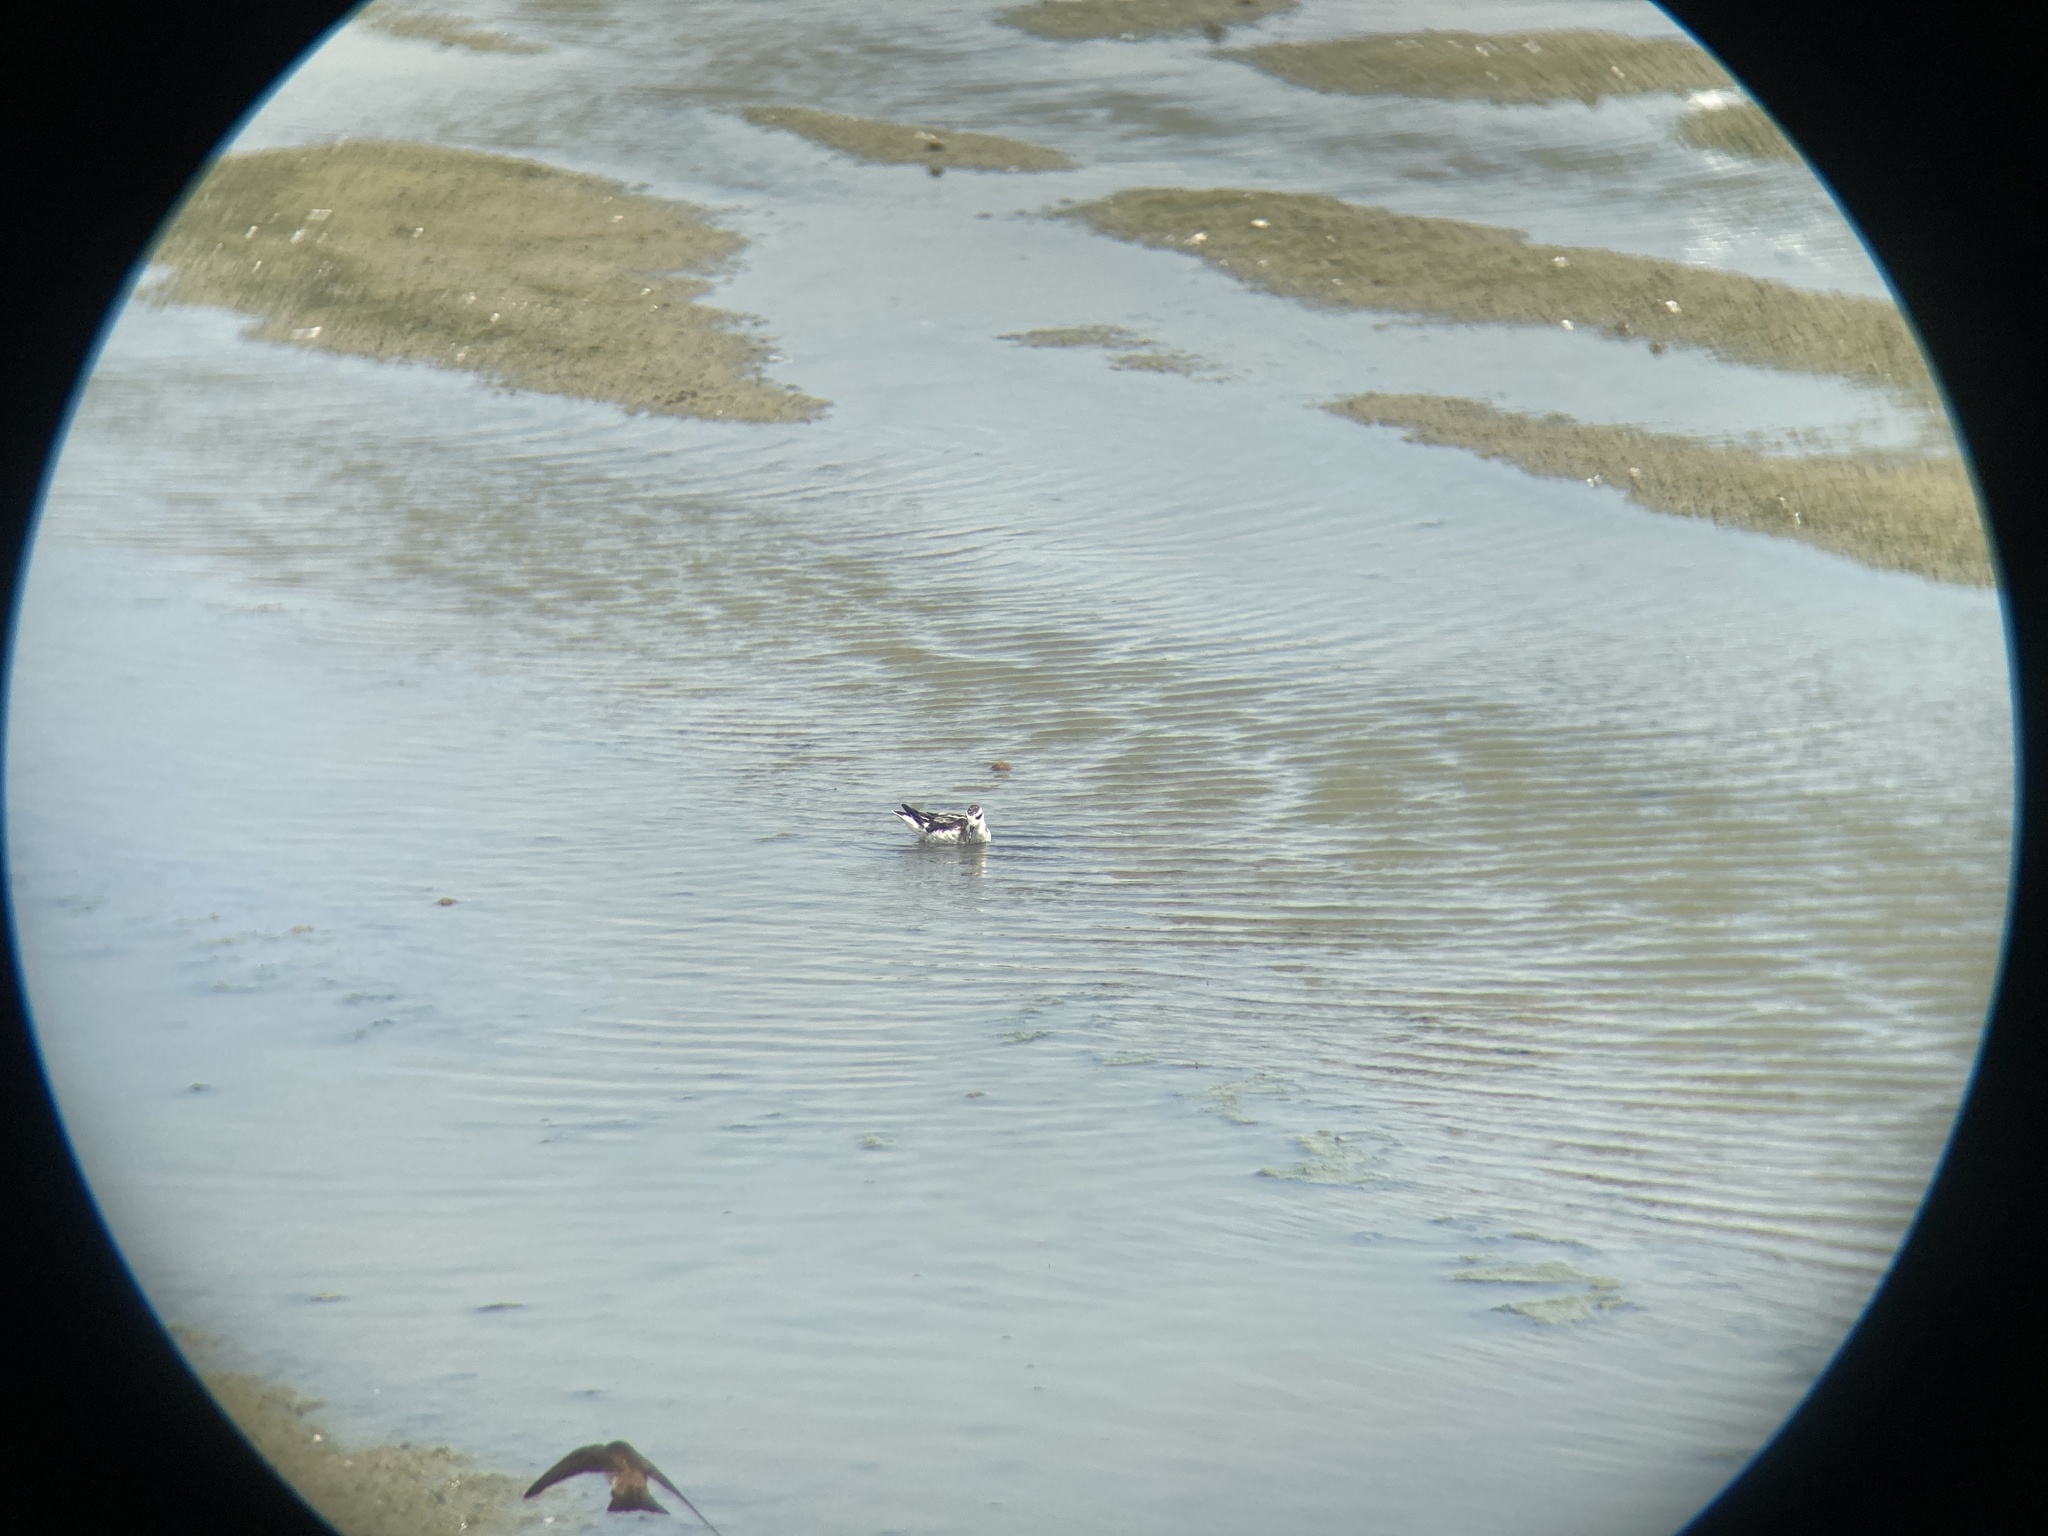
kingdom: Animalia
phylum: Chordata
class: Aves
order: Charadriiformes
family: Scolopacidae
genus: Phalaropus
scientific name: Phalaropus lobatus
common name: Red-necked phalarope
